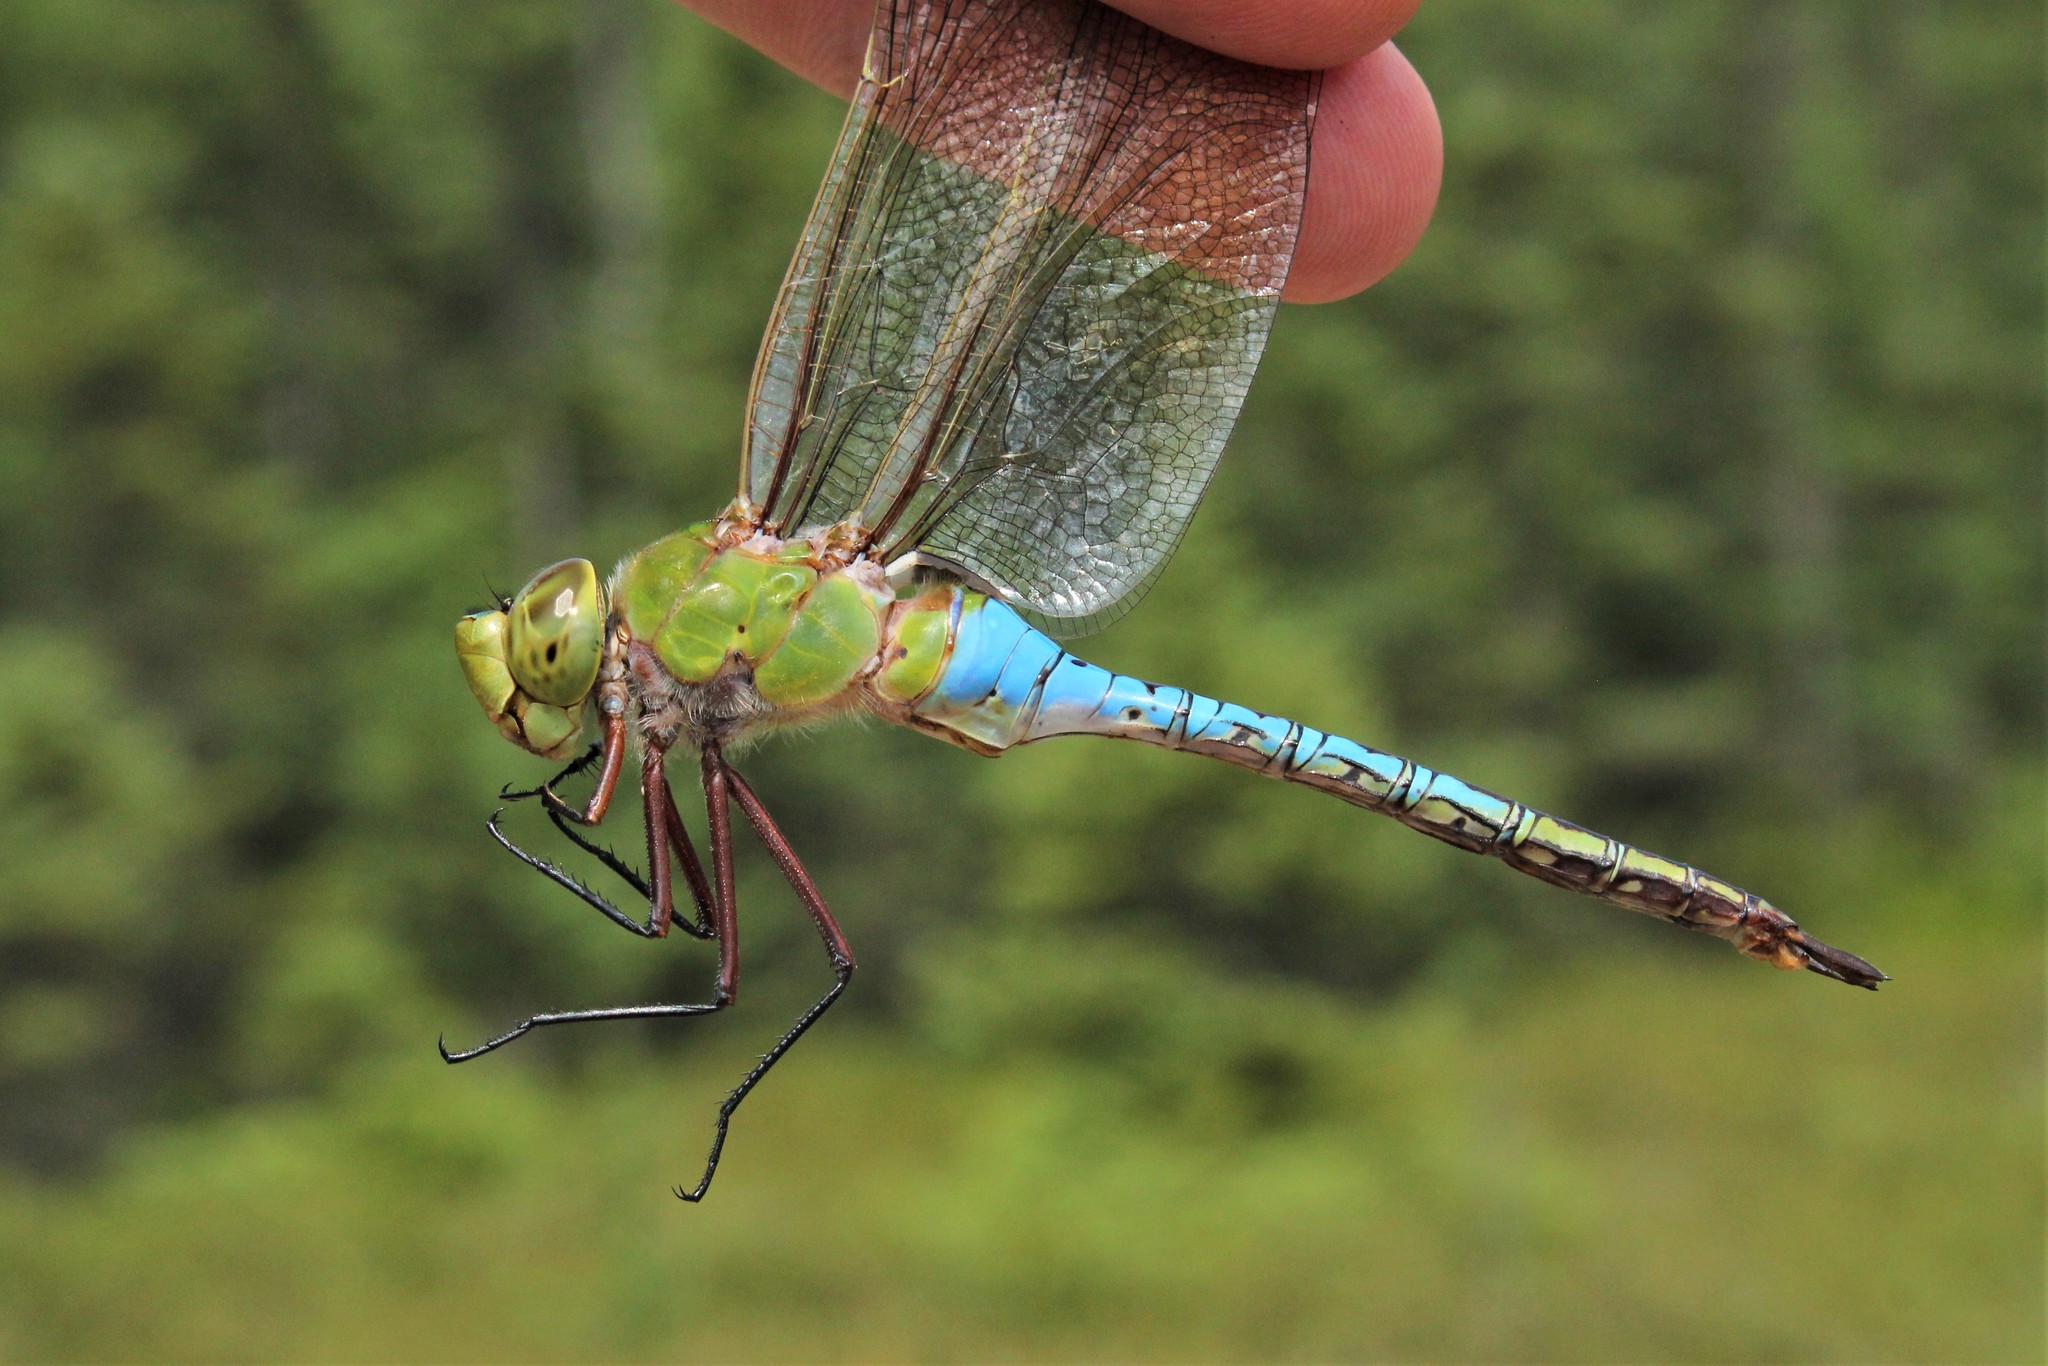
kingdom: Animalia
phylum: Arthropoda
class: Insecta
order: Odonata
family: Aeshnidae
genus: Anax
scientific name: Anax junius
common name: Common green darner
